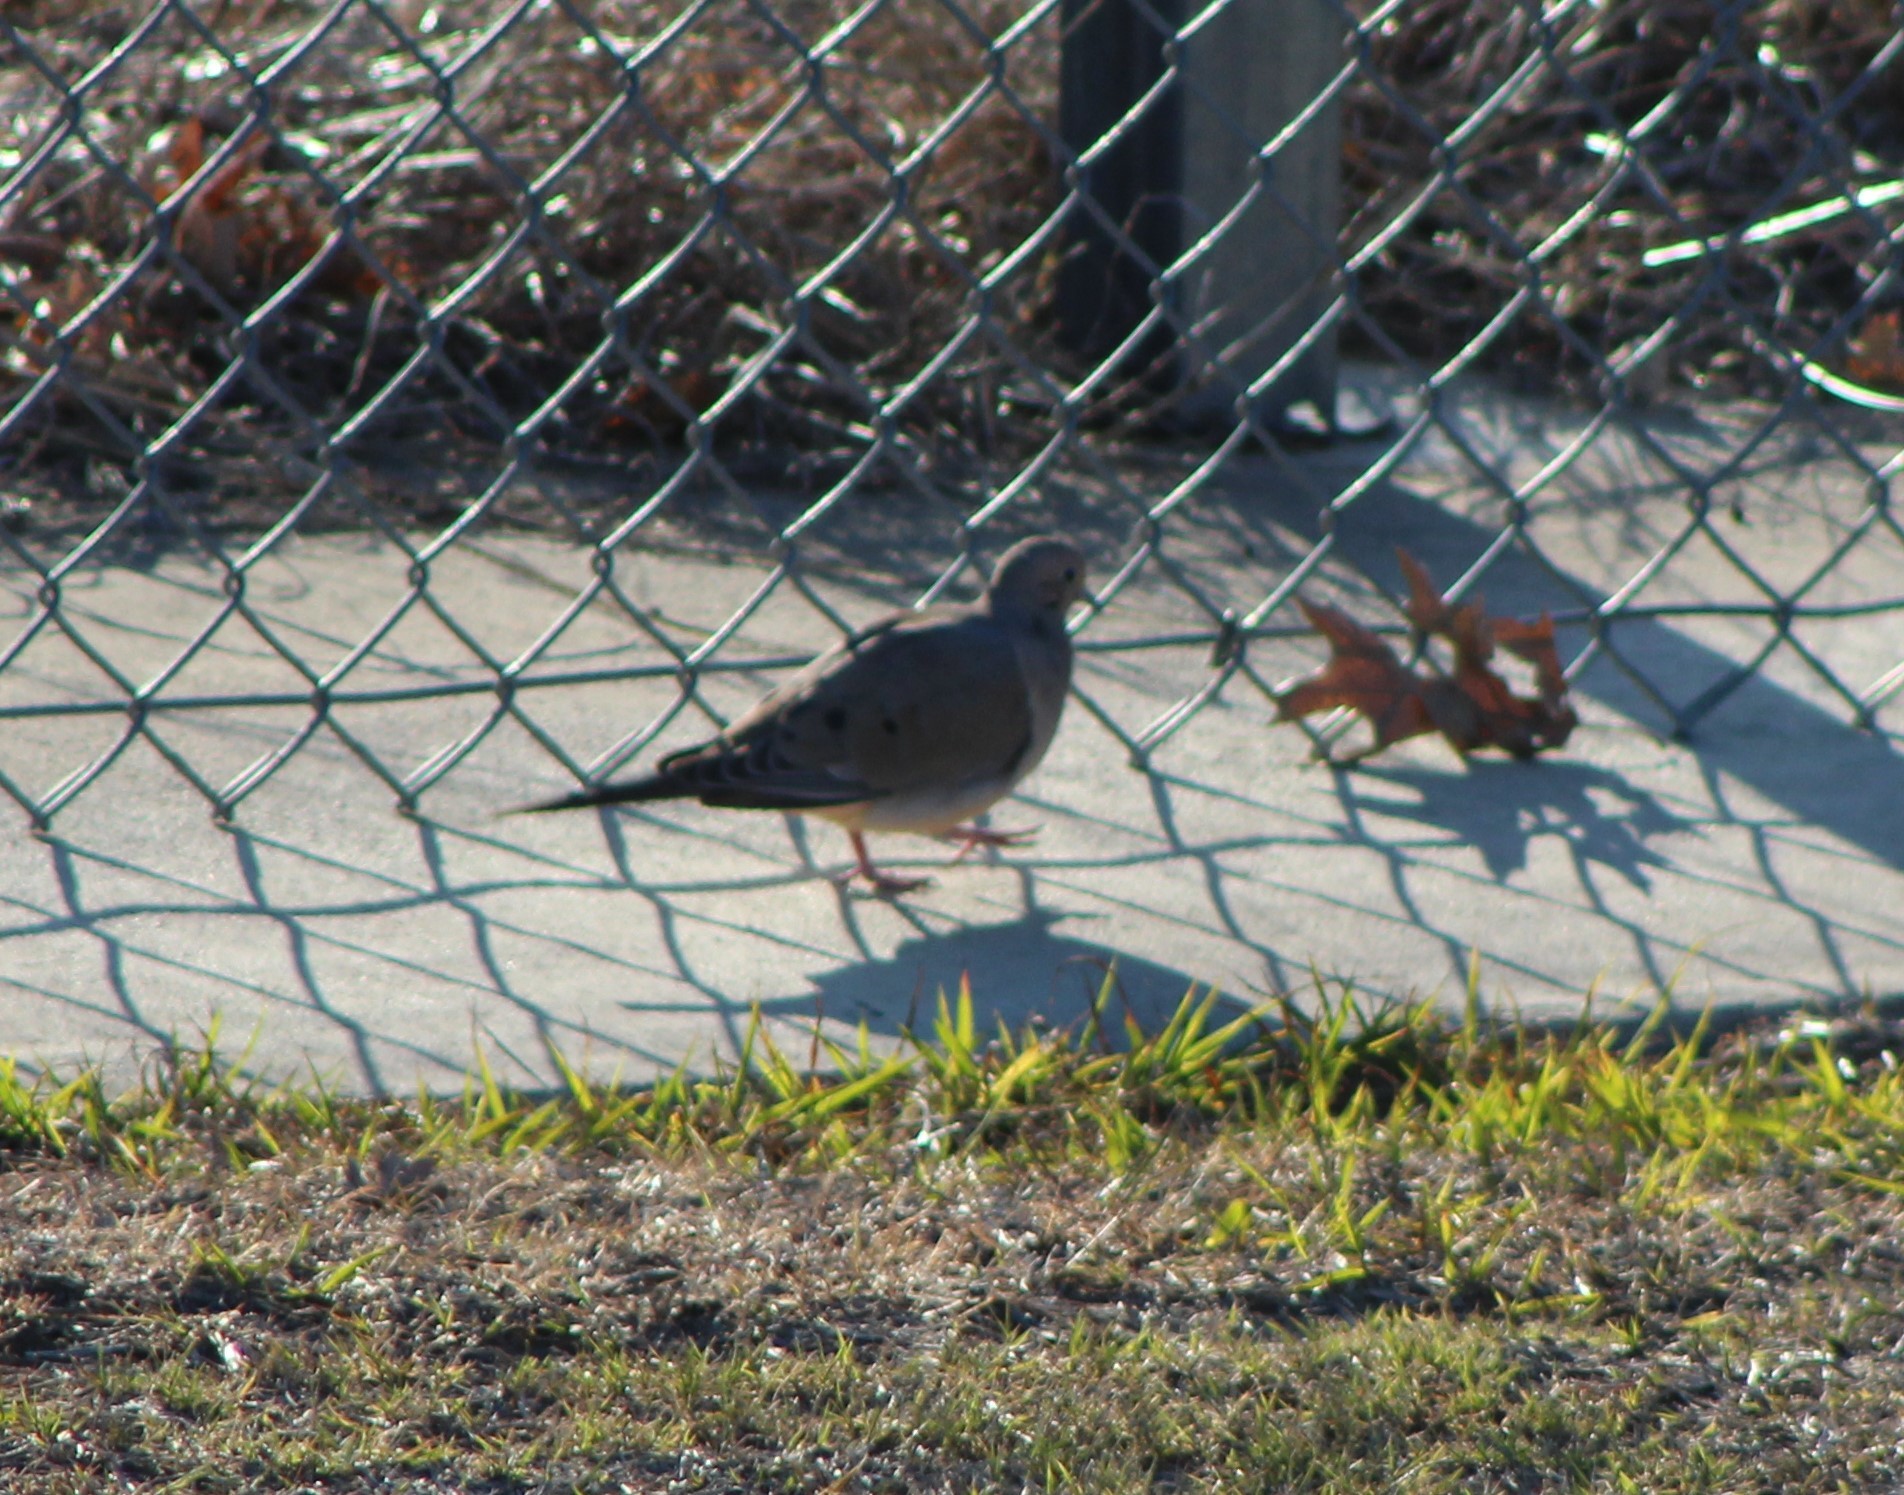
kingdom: Animalia
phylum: Chordata
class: Aves
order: Columbiformes
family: Columbidae
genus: Zenaida
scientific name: Zenaida macroura
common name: Mourning dove
